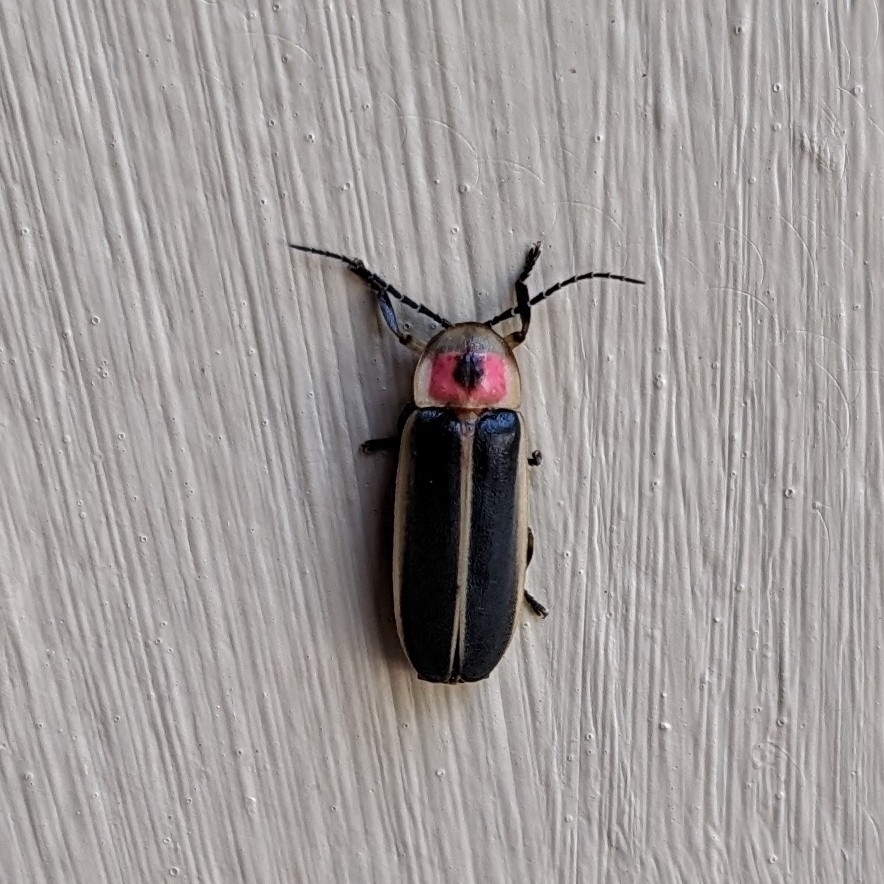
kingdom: Animalia
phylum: Arthropoda
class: Insecta
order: Coleoptera
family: Lampyridae
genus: Photinus
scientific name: Photinus pyralis
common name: Big dipper firefly
